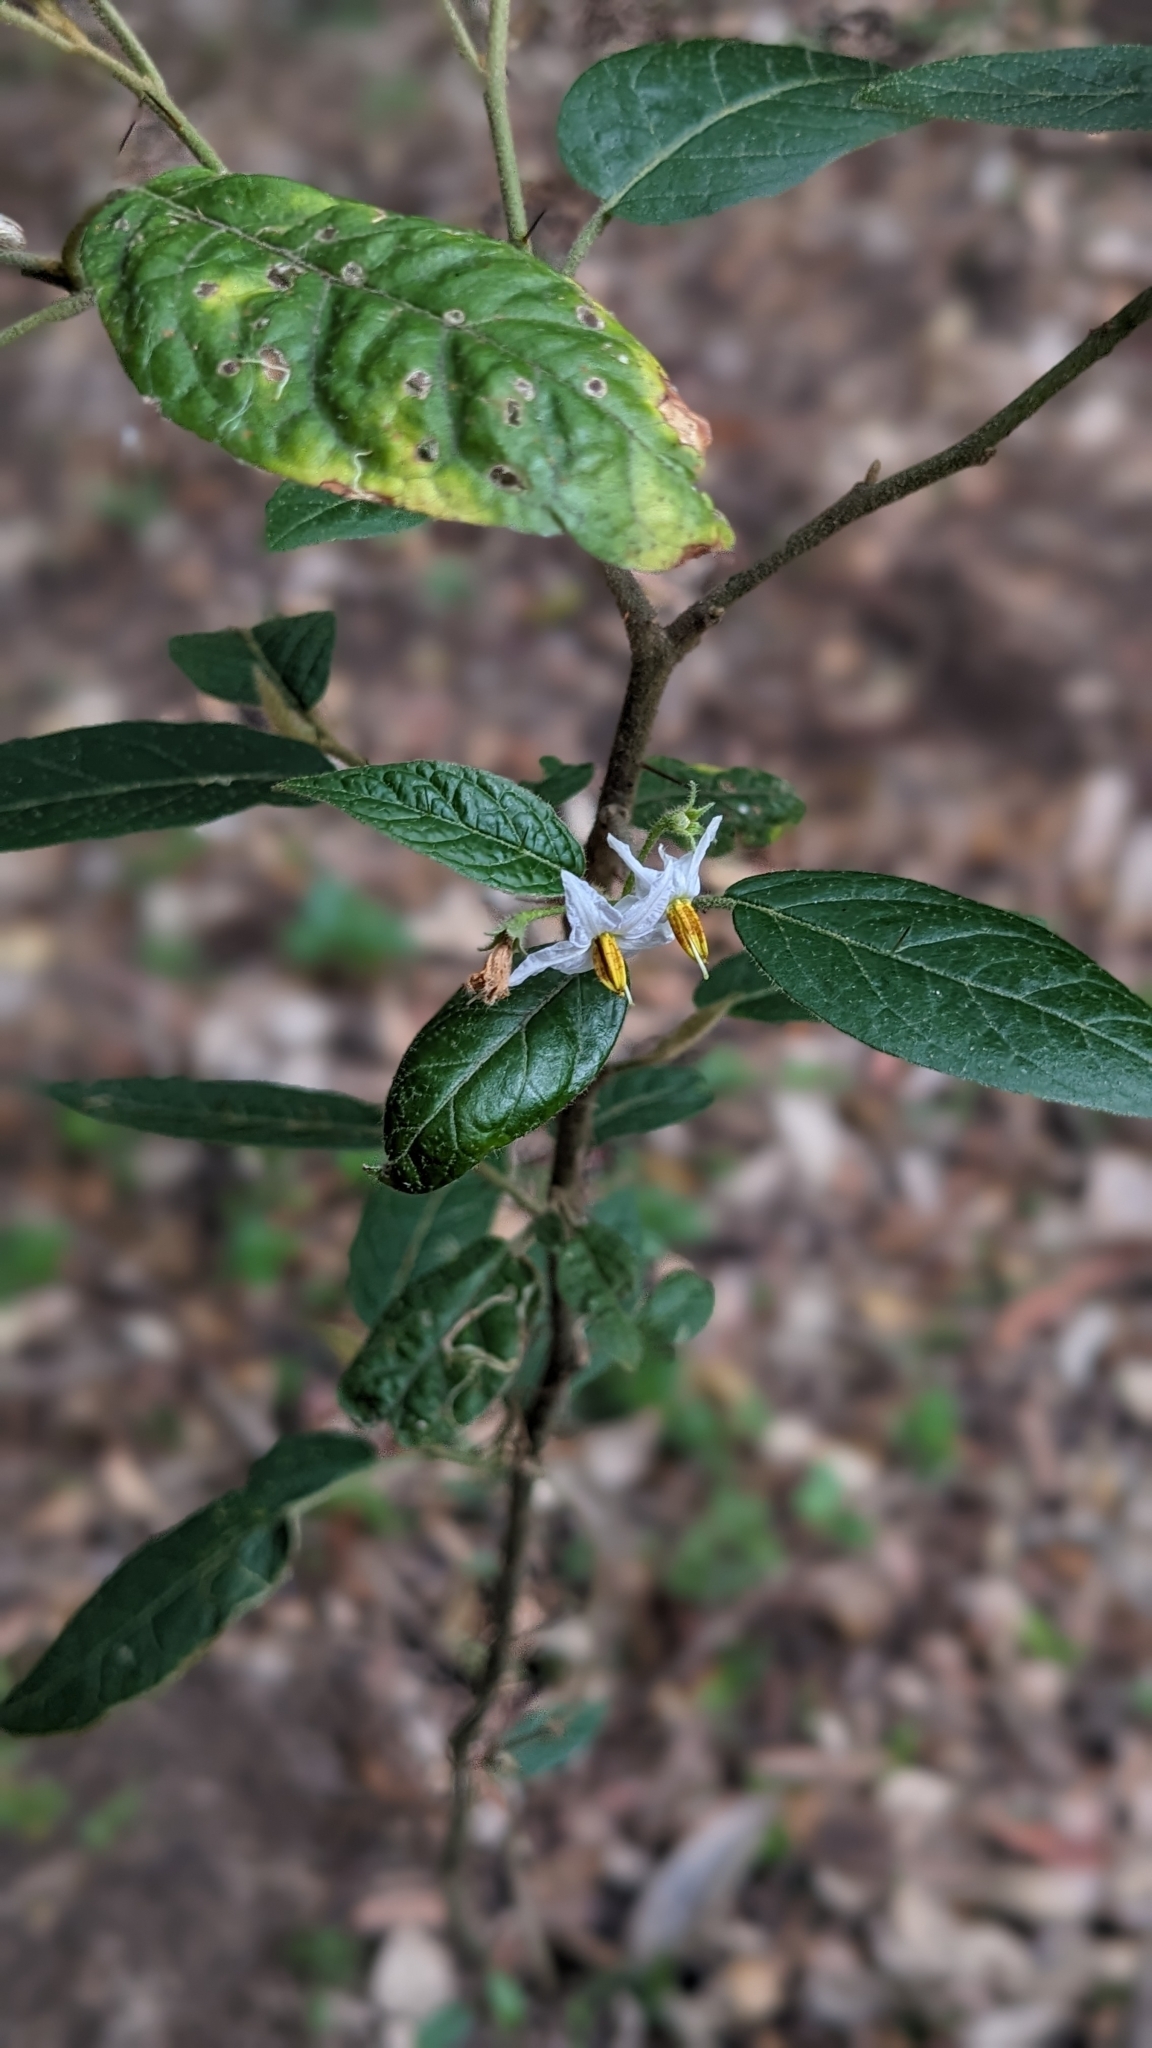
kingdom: Plantae
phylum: Tracheophyta
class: Magnoliopsida
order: Solanales
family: Solanaceae
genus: Solanum
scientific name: Solanum stelligerum
